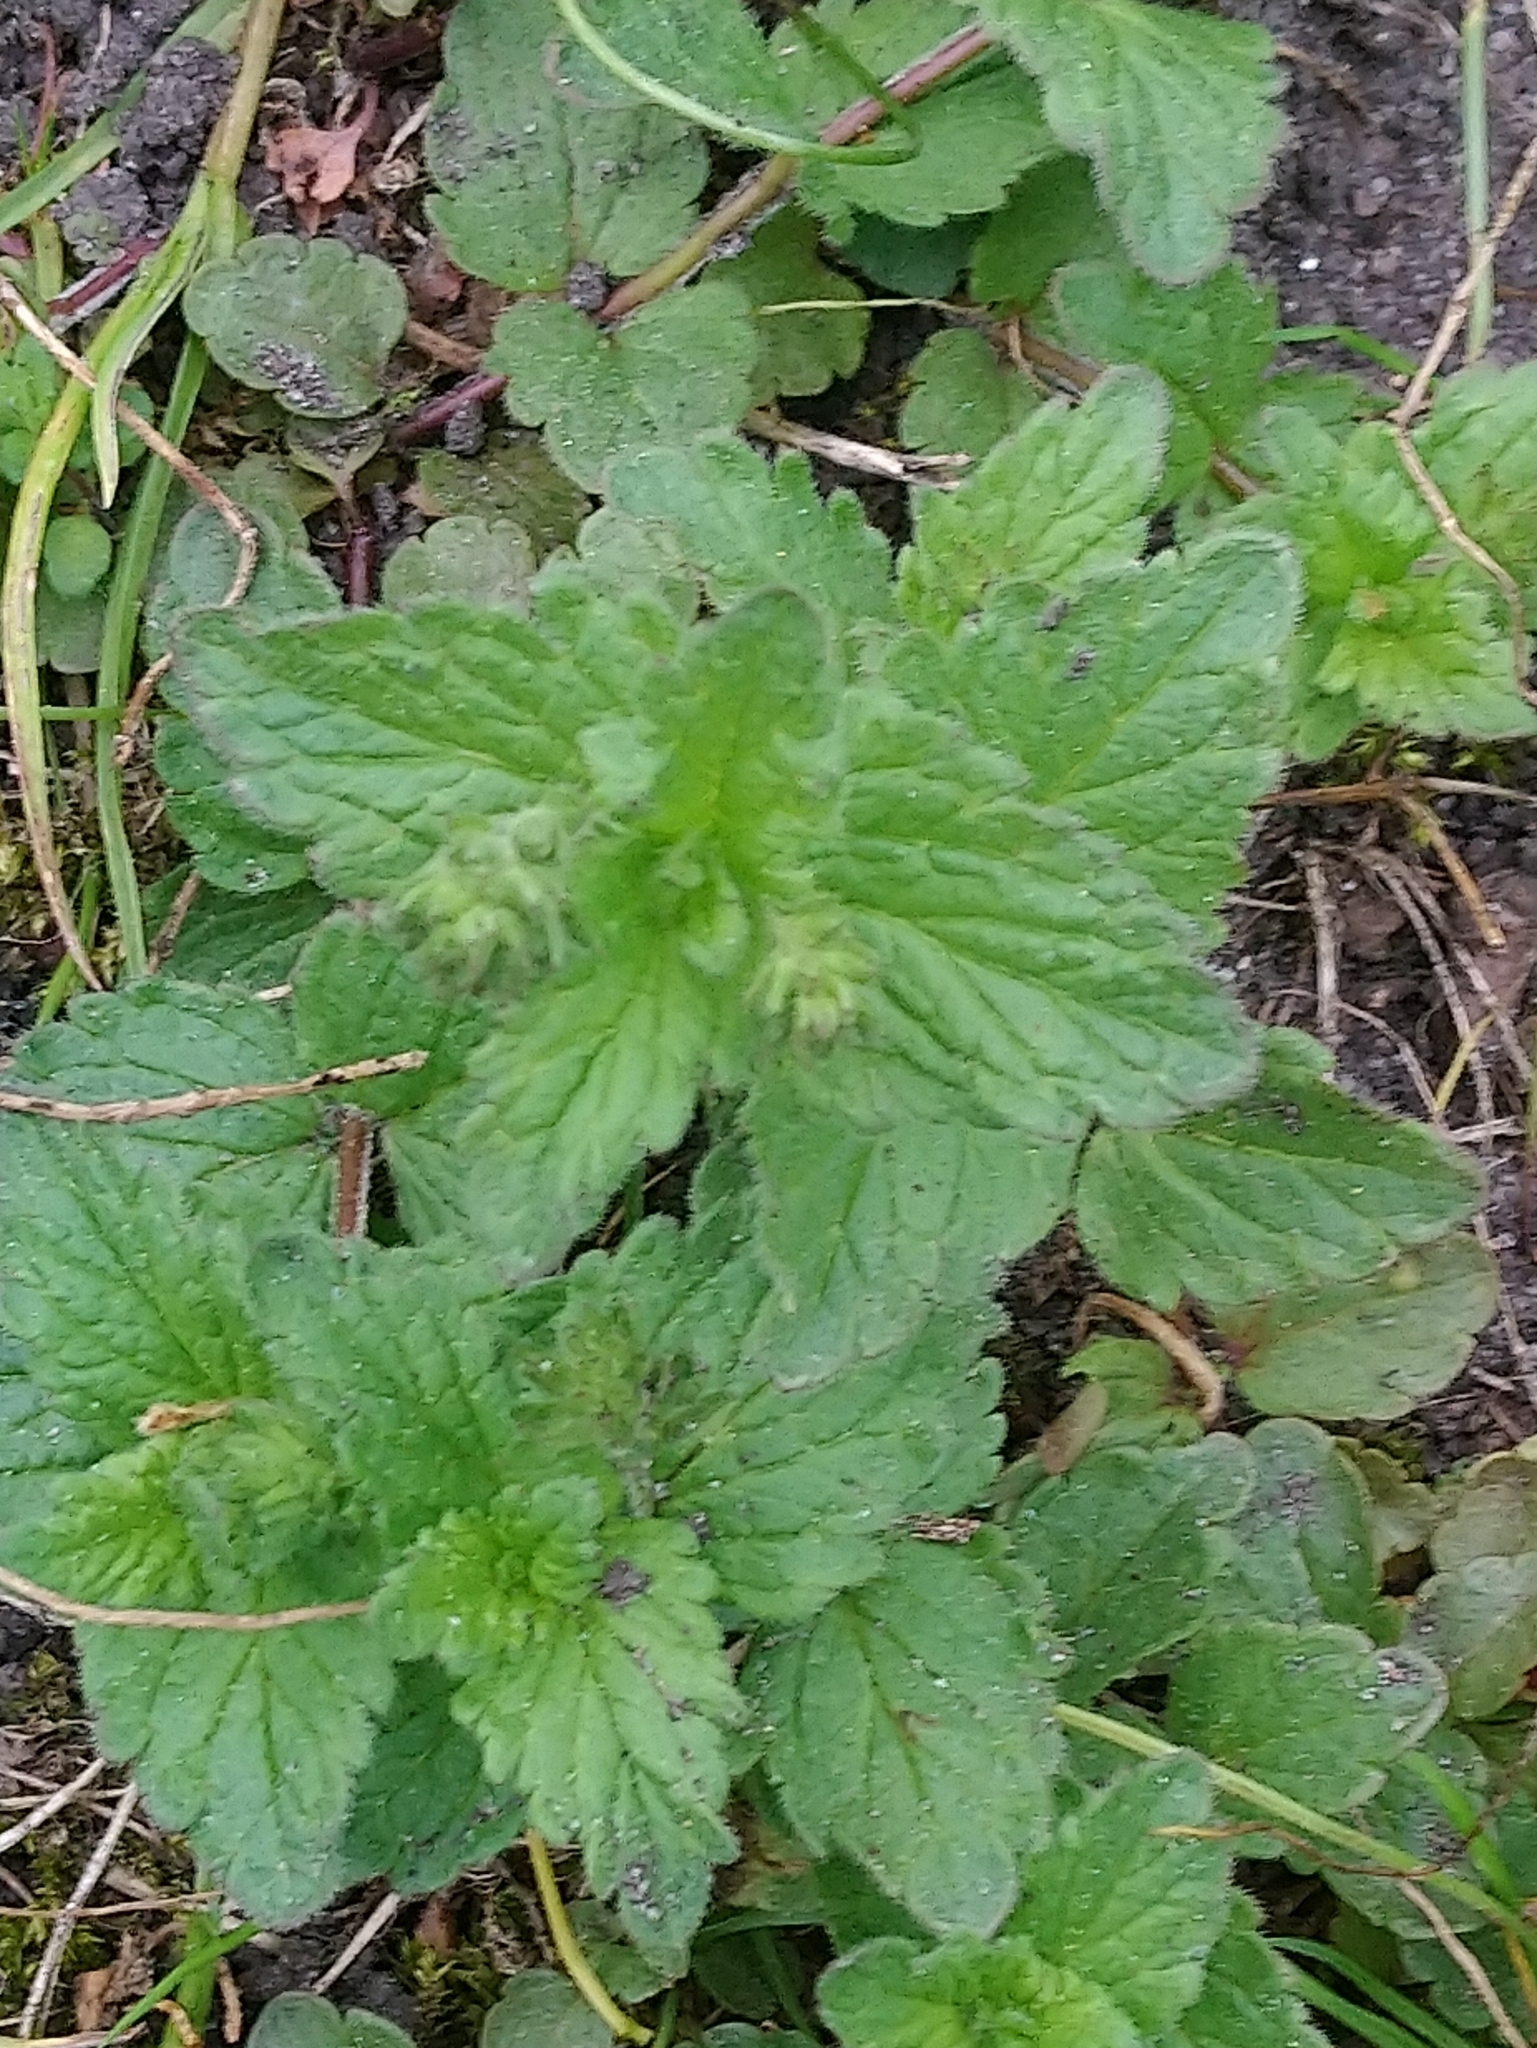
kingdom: Plantae
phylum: Tracheophyta
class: Magnoliopsida
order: Lamiales
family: Plantaginaceae
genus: Veronica
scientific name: Veronica chamaedrys
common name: Germander speedwell
